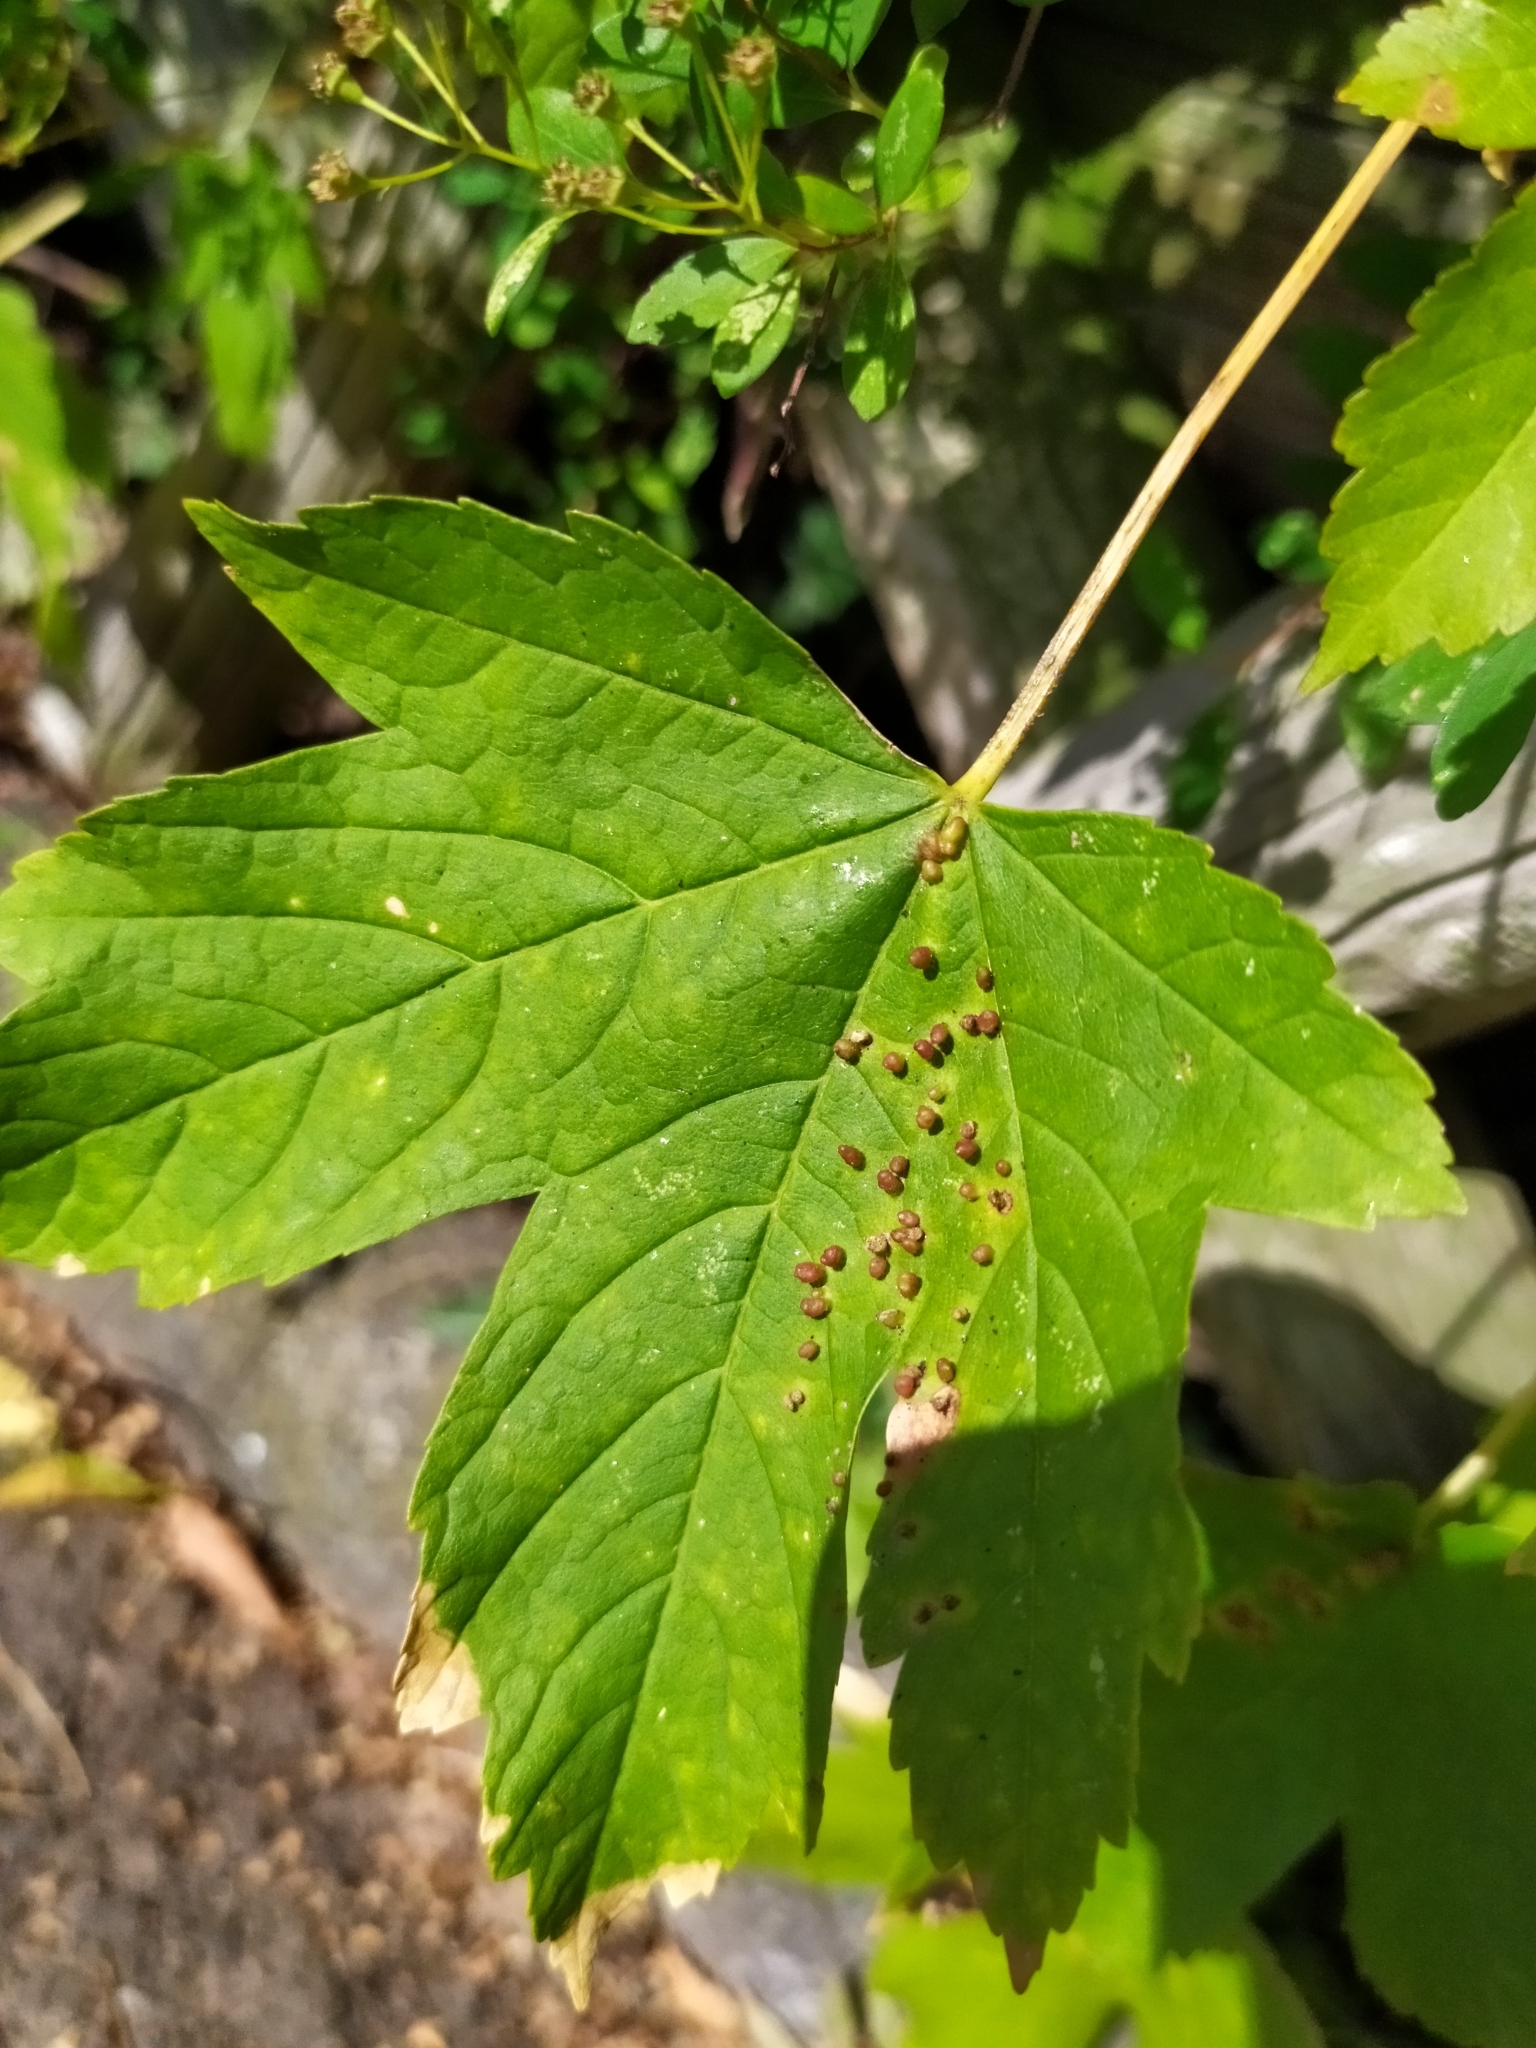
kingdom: Plantae
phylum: Tracheophyta
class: Magnoliopsida
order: Sapindales
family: Sapindaceae
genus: Acer
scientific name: Acer pseudoplatanus
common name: Sycamore
